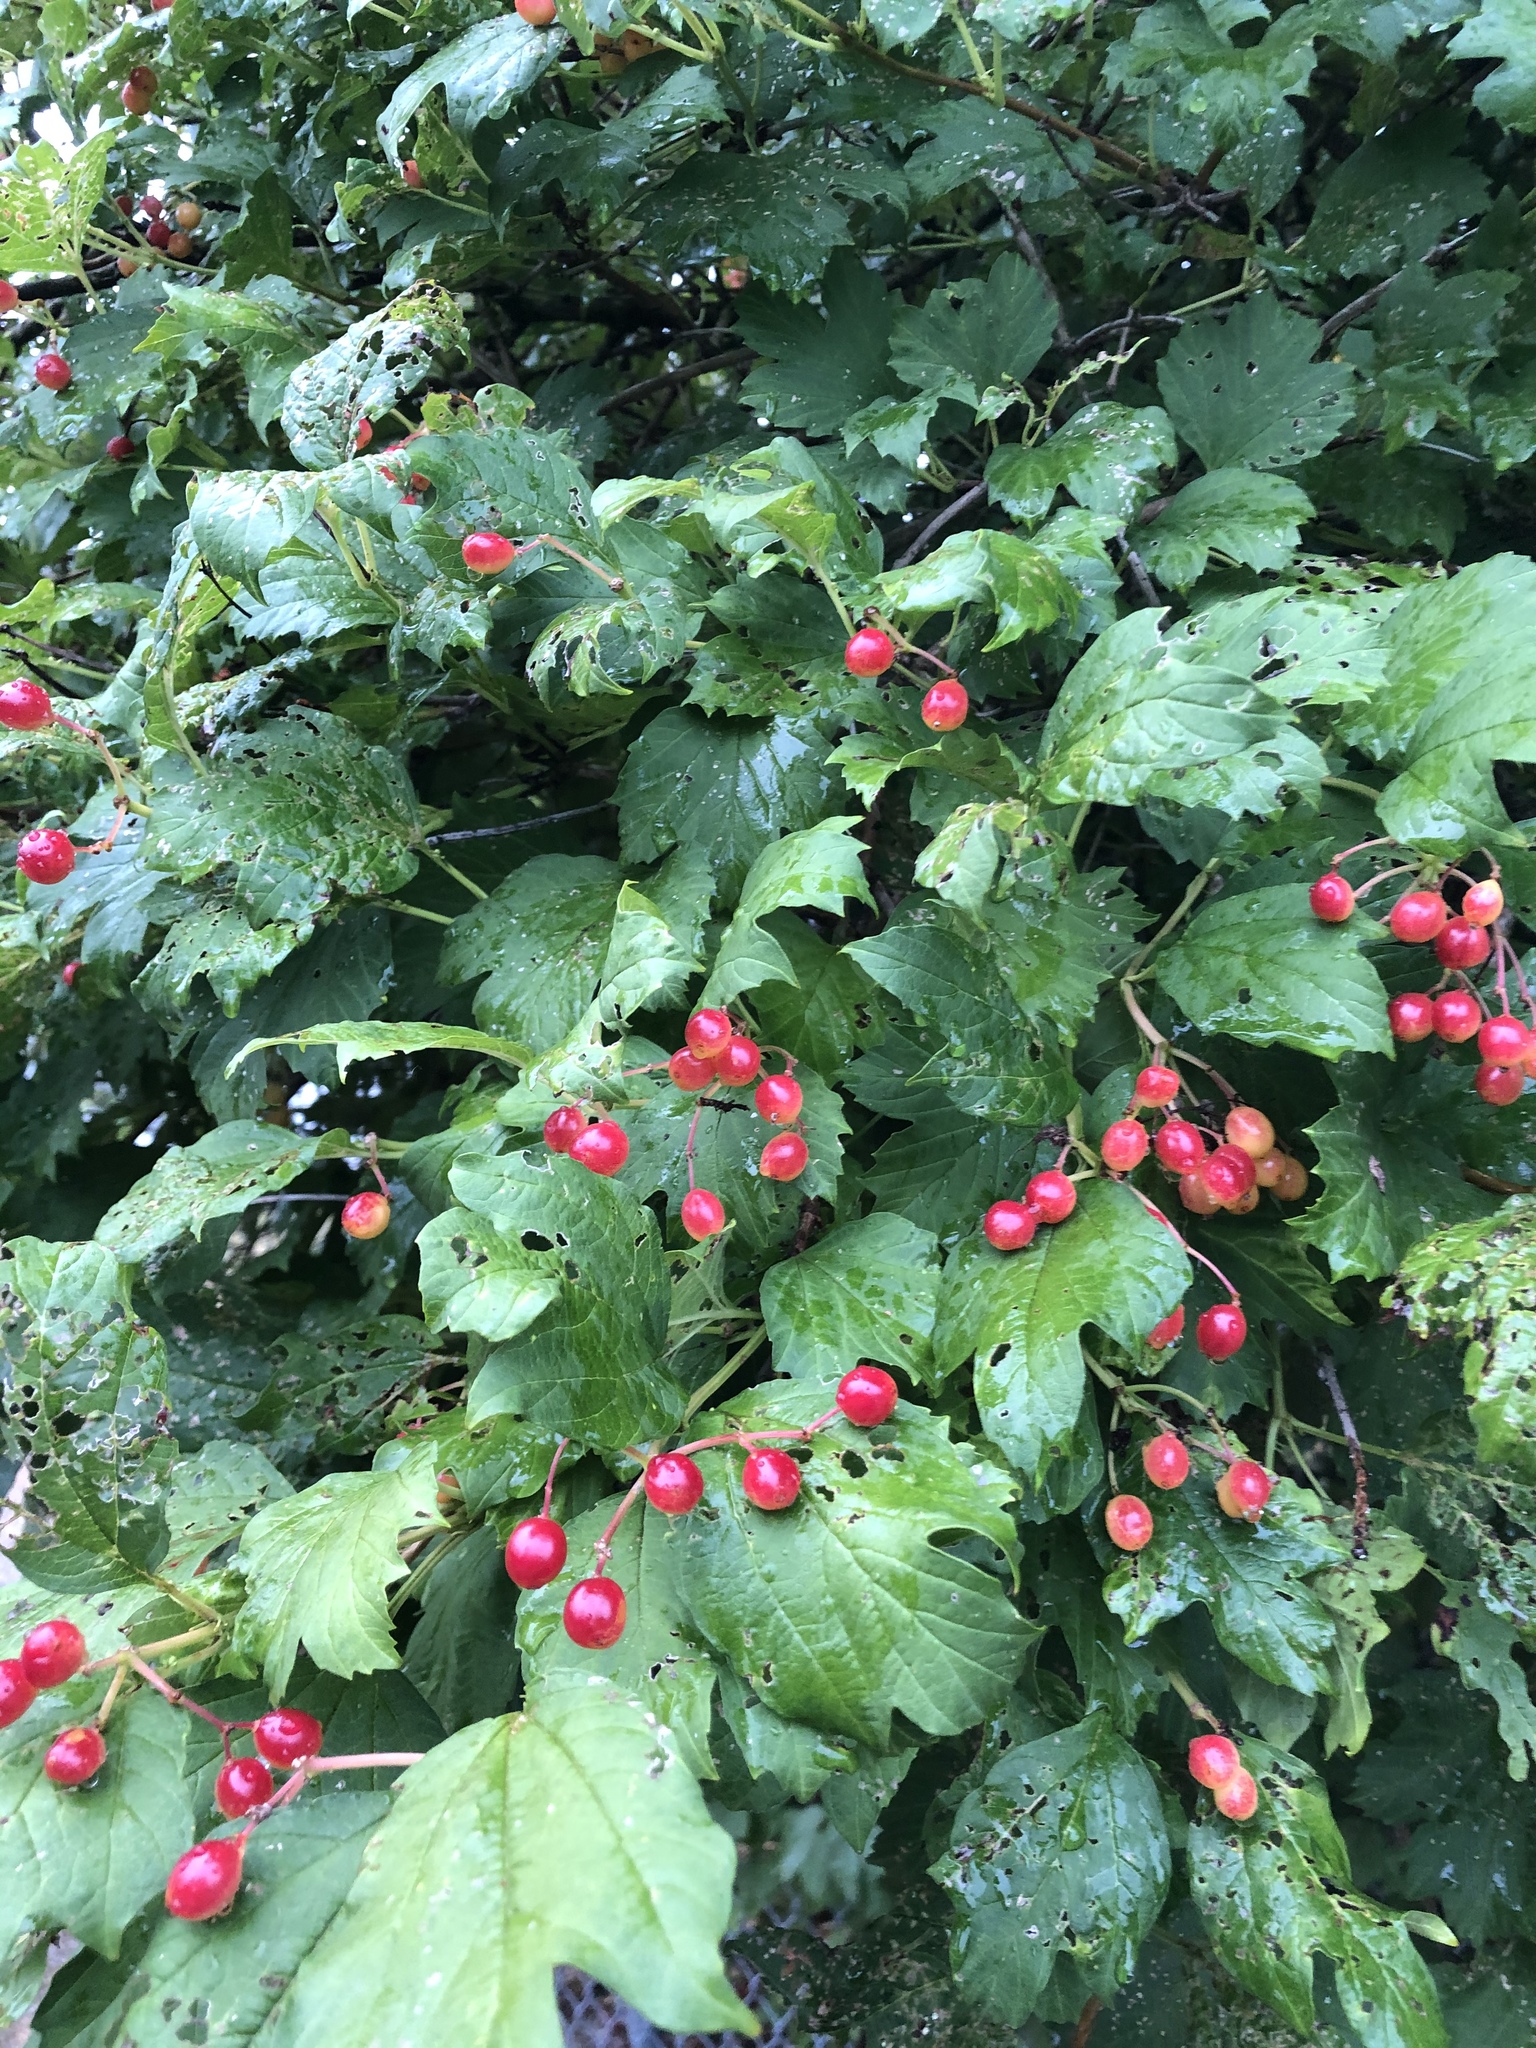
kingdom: Plantae
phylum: Tracheophyta
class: Magnoliopsida
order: Dipsacales
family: Viburnaceae
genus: Viburnum
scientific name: Viburnum opulus
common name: Guelder-rose
